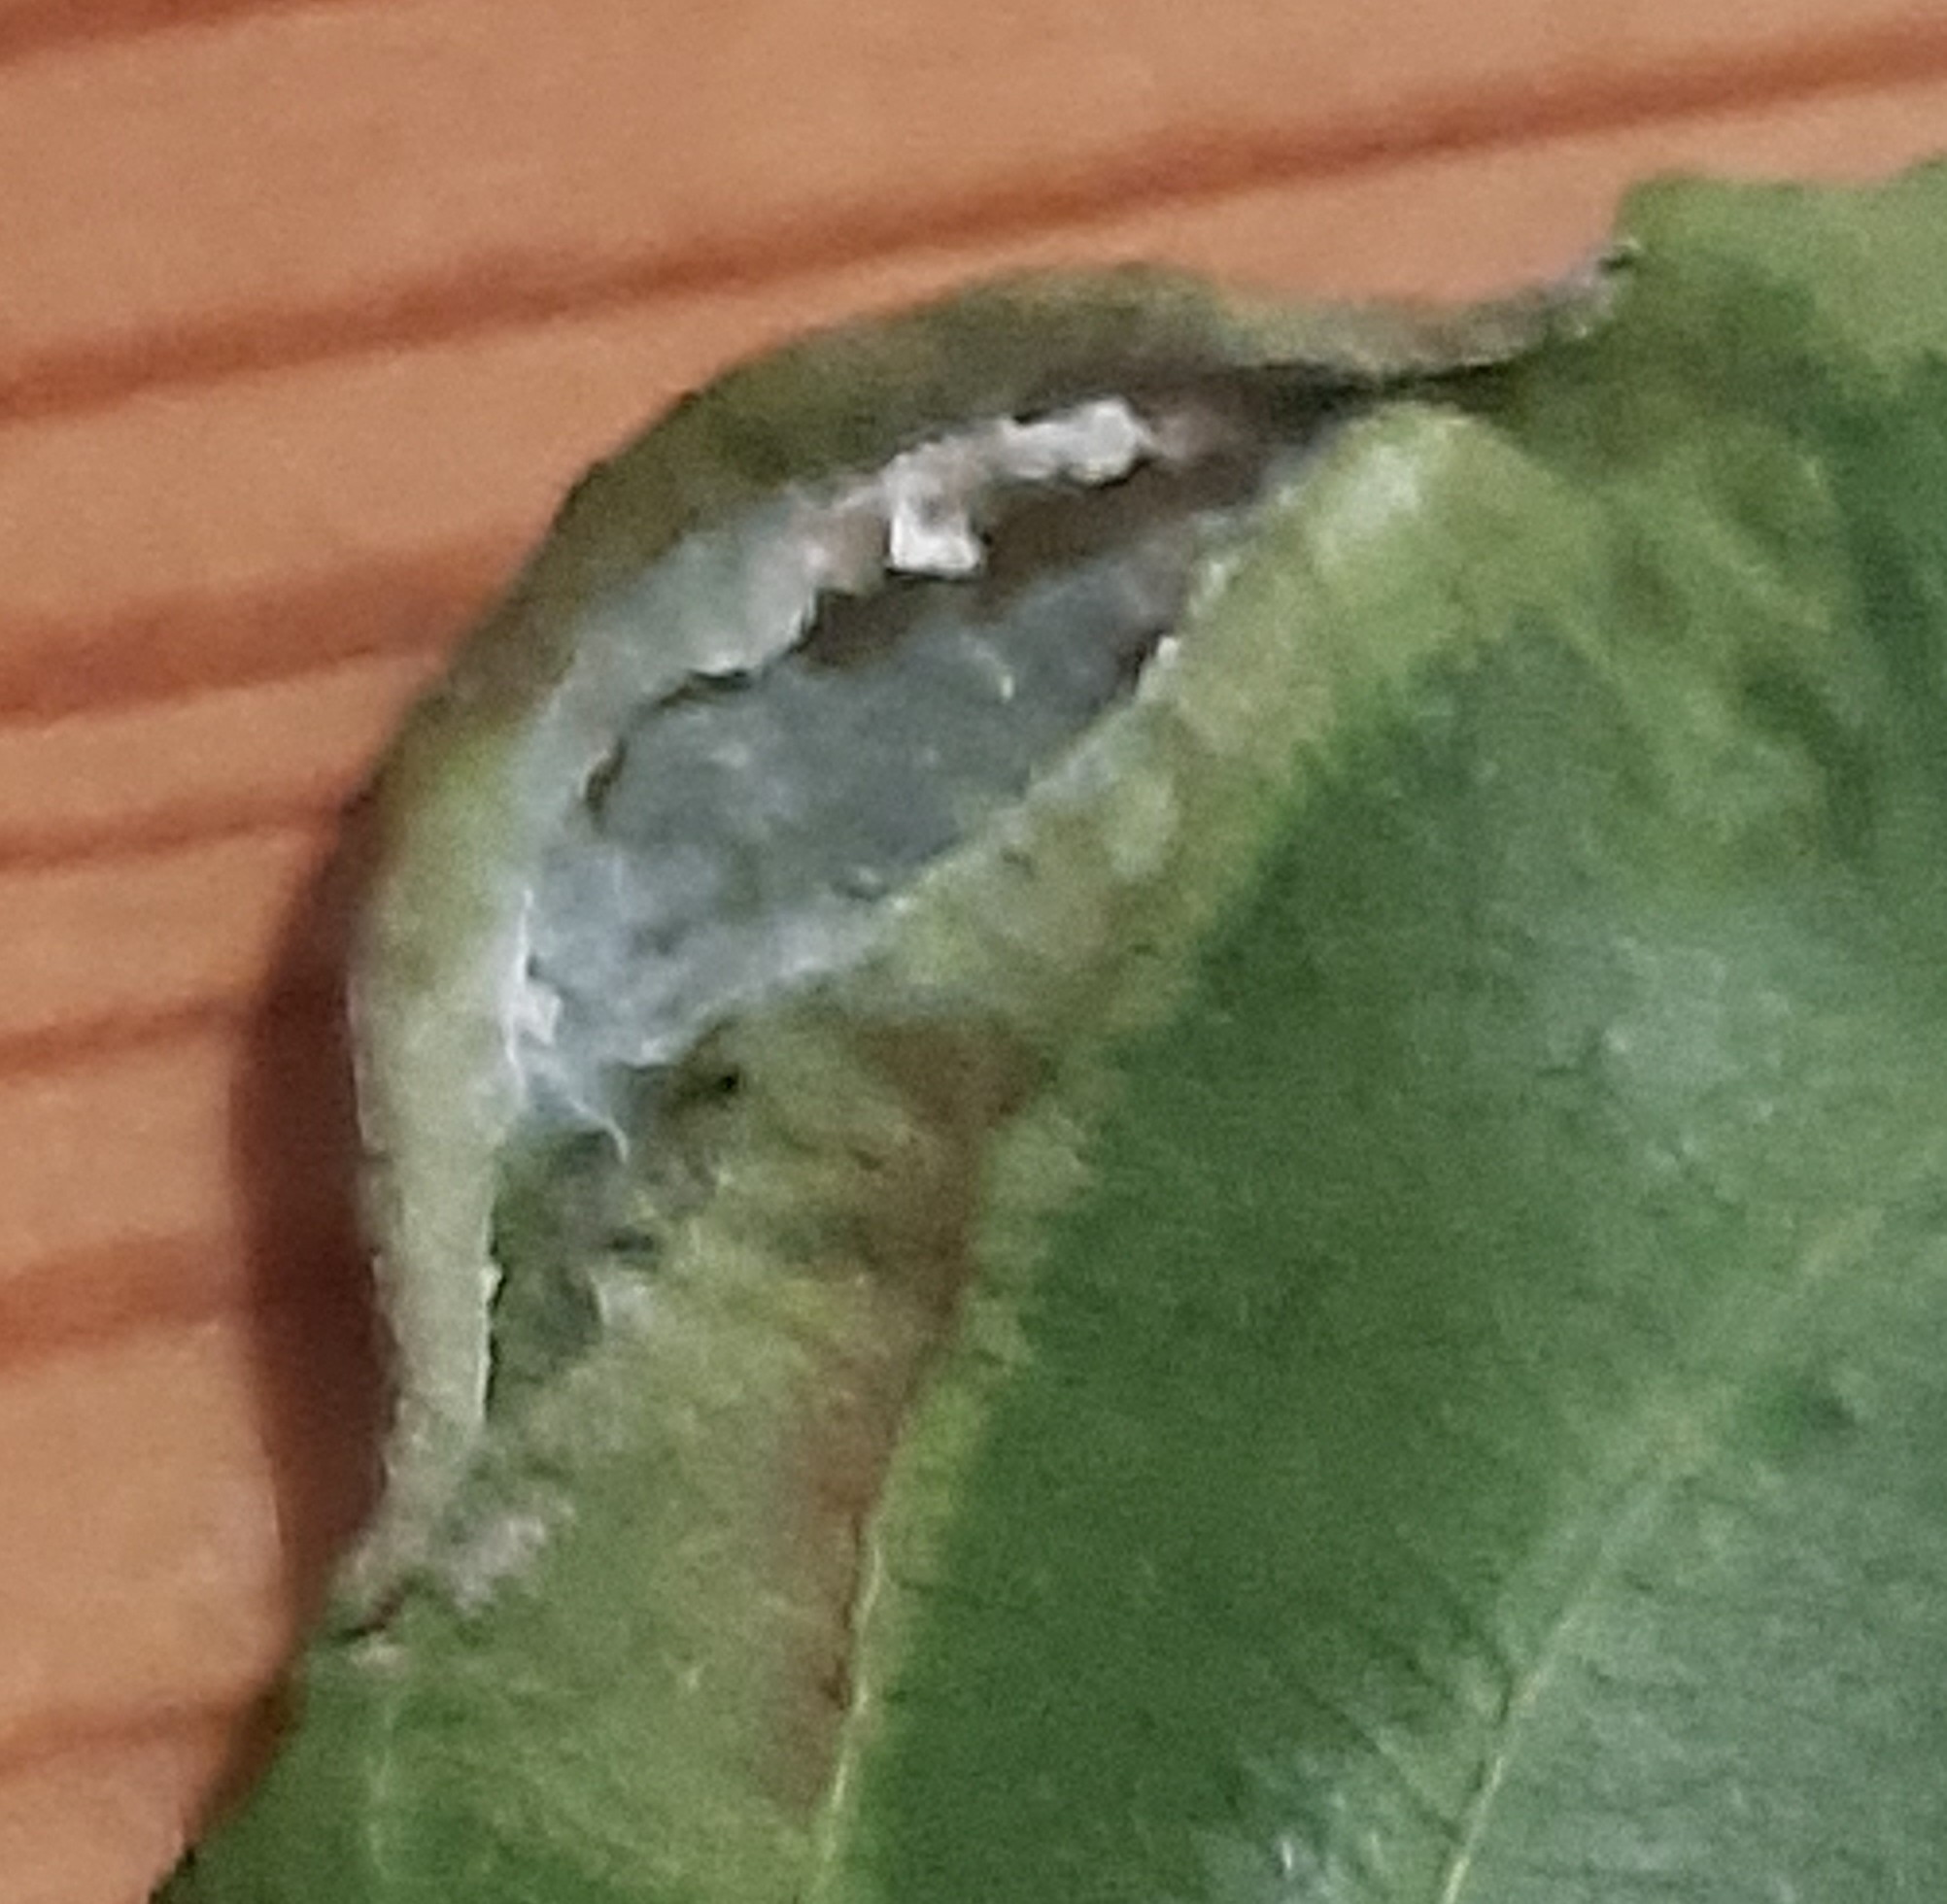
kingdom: Animalia
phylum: Arthropoda
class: Insecta
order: Hemiptera
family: Triozidae
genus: Trichochermes
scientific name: Trichochermes walkeri
